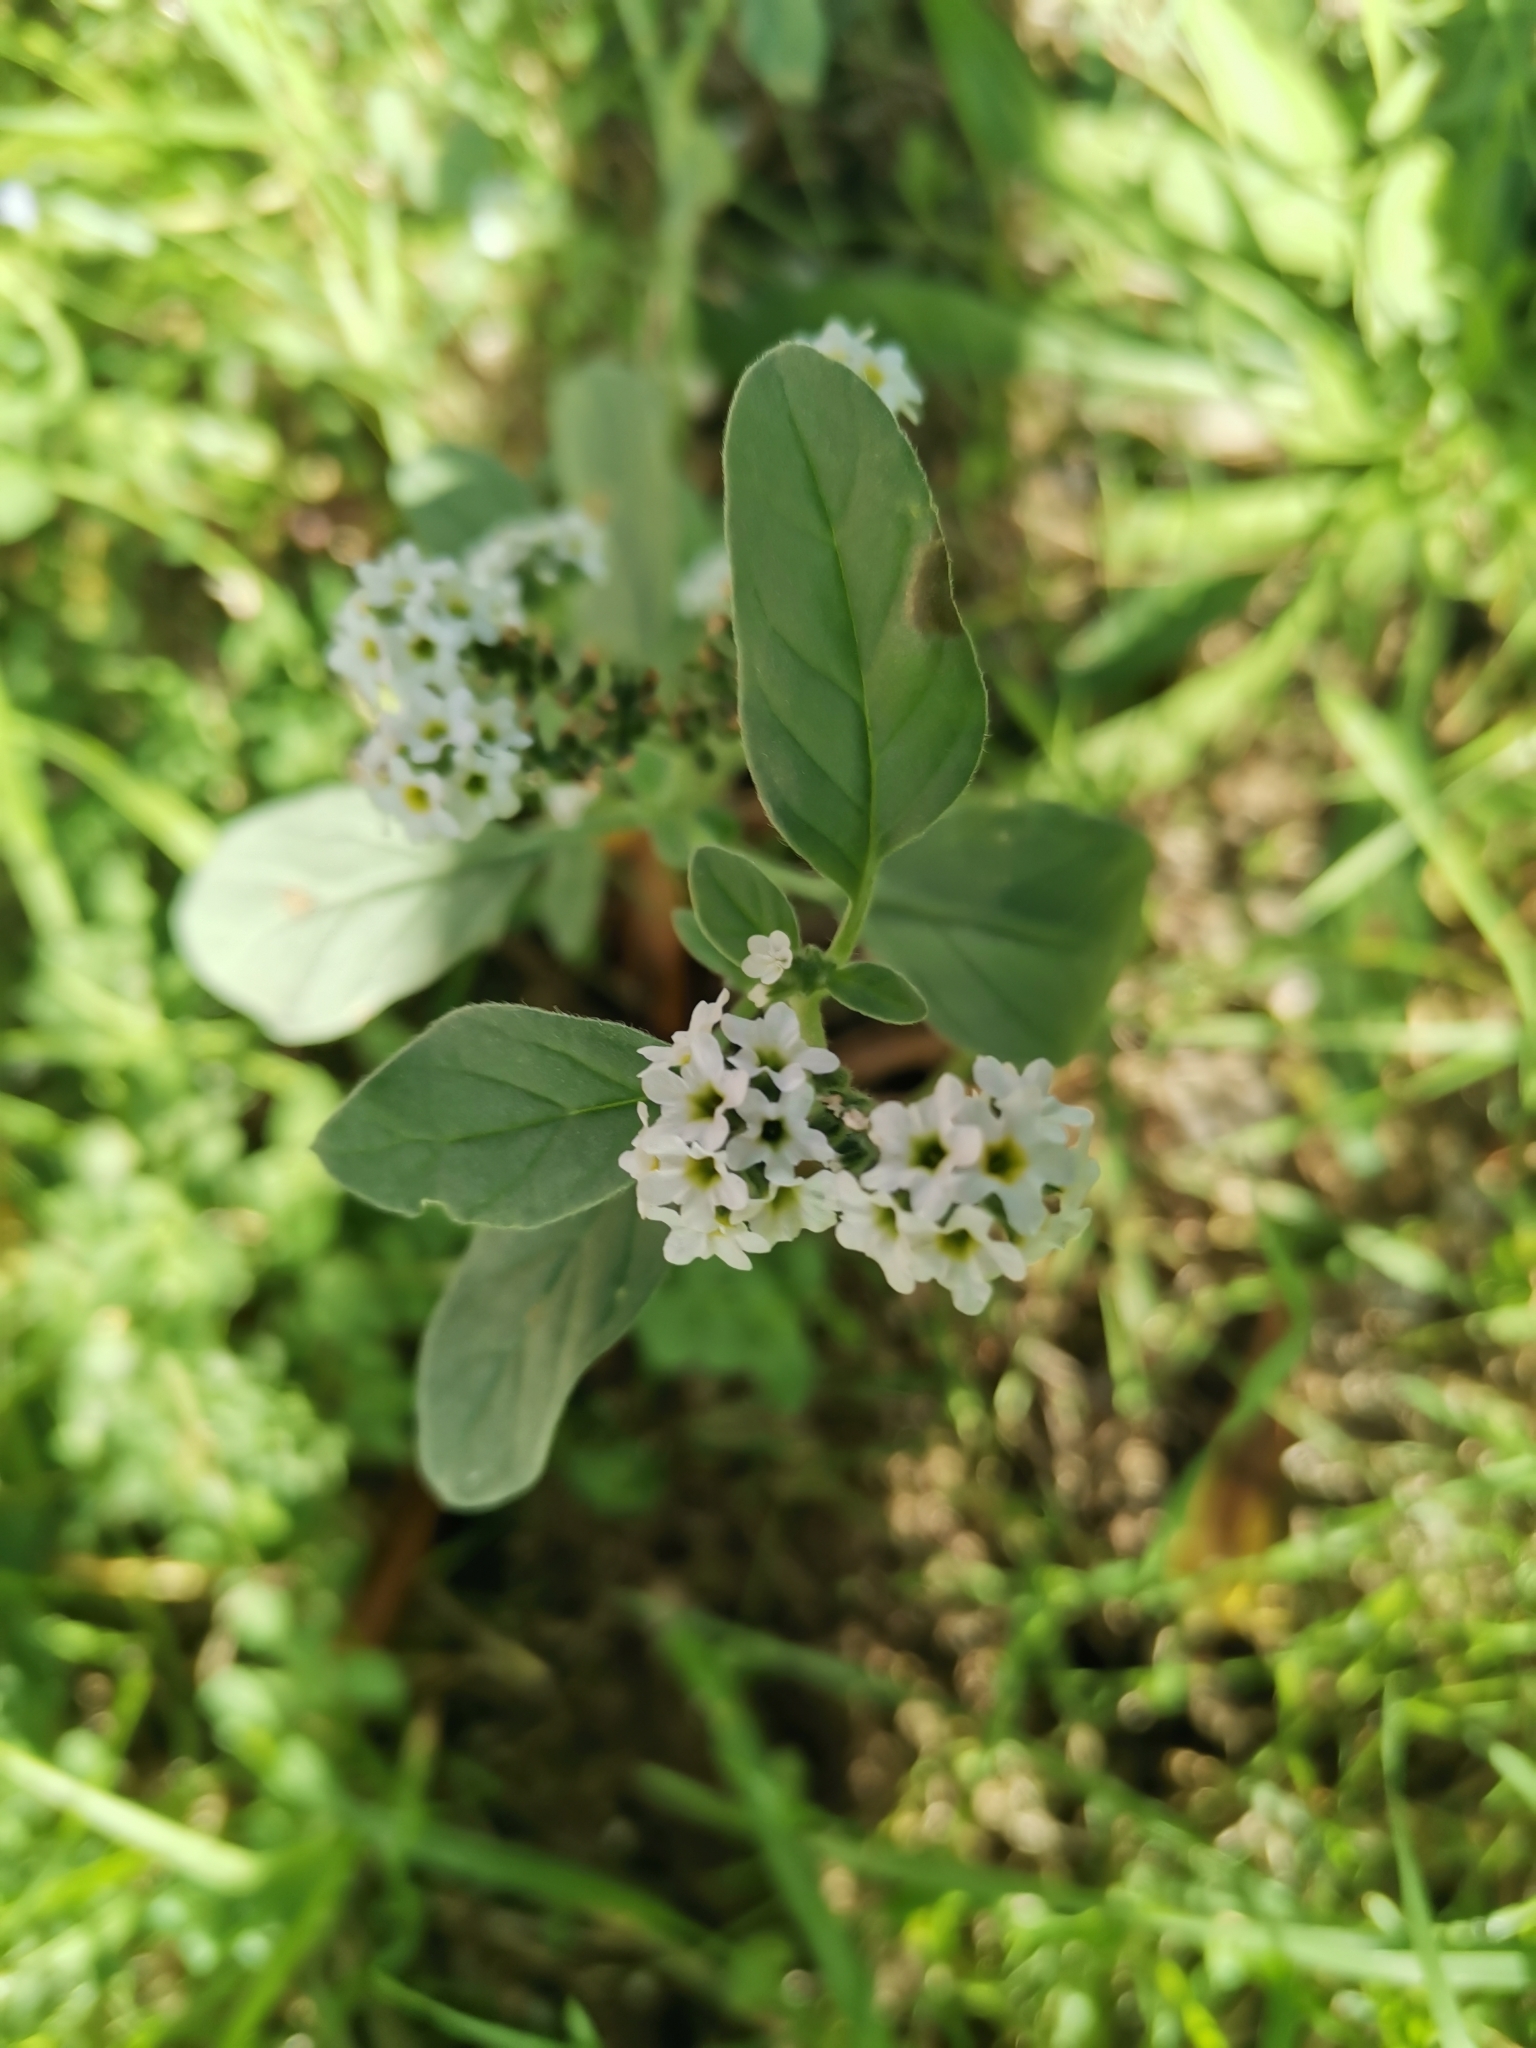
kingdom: Plantae
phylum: Tracheophyta
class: Magnoliopsida
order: Boraginales
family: Heliotropiaceae
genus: Heliotropium
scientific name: Heliotropium europaeum
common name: European heliotrope
